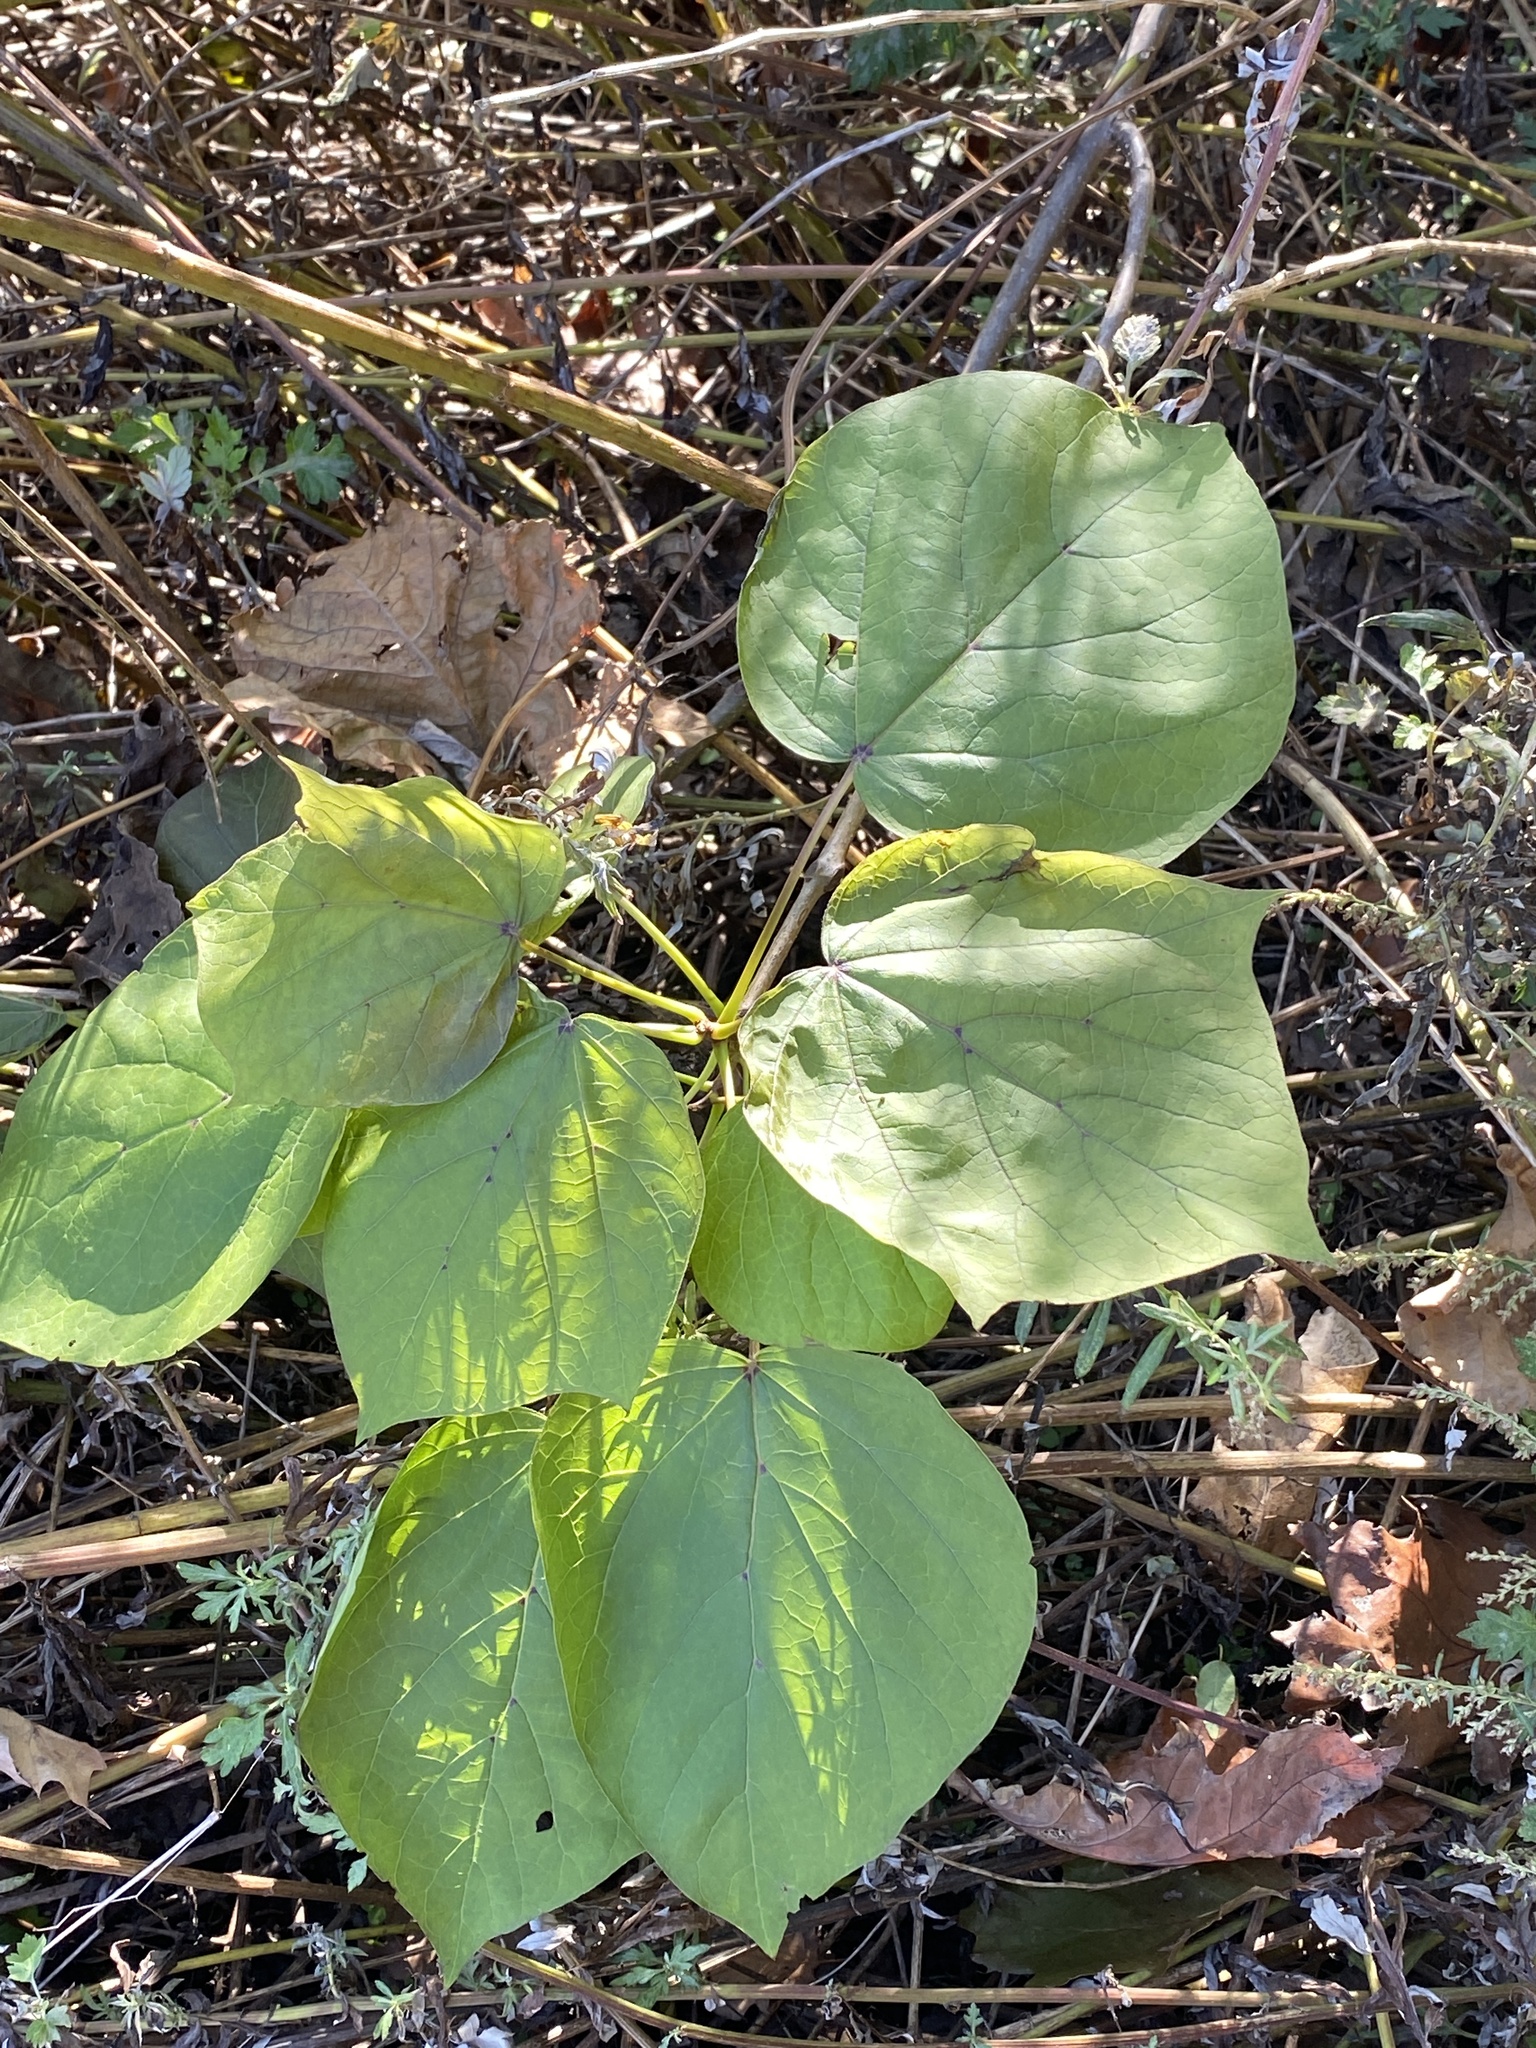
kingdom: Plantae
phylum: Tracheophyta
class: Magnoliopsida
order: Lamiales
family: Paulowniaceae
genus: Paulownia
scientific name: Paulownia tomentosa
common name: Foxglove-tree
